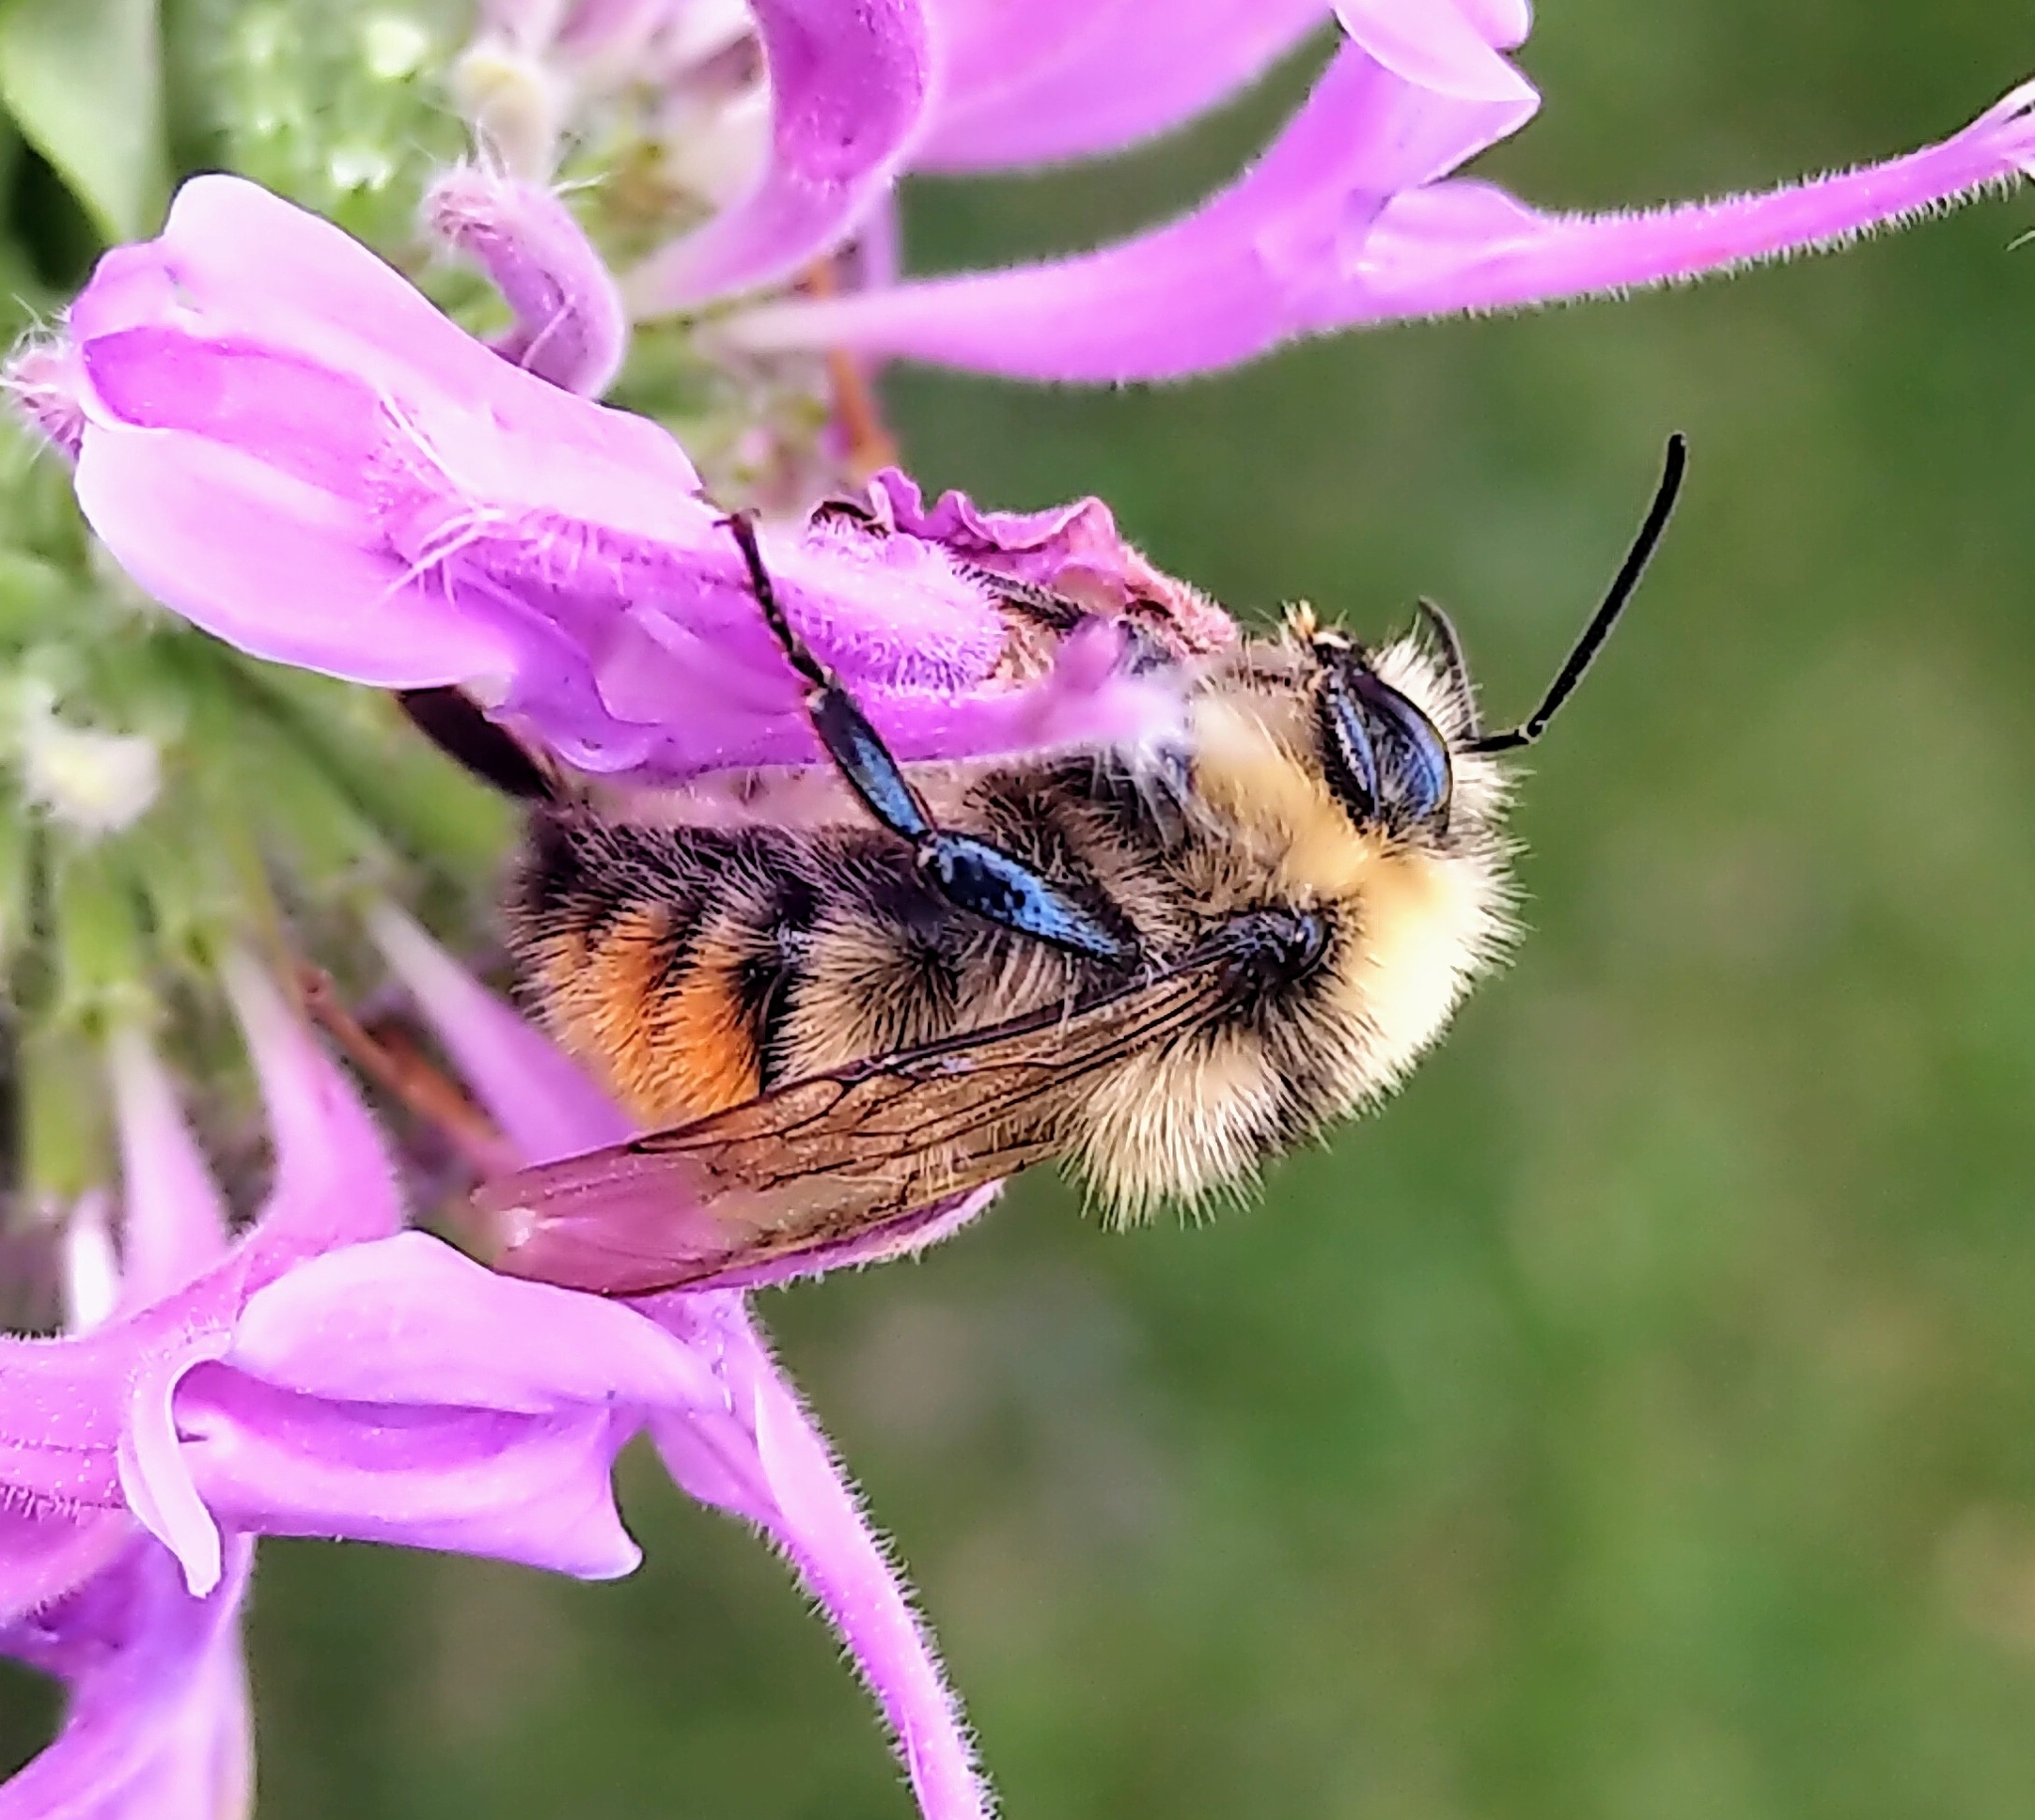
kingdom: Animalia
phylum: Arthropoda
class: Insecta
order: Hymenoptera
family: Apidae
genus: Bombus
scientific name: Bombus centralis
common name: Central bumble bee
